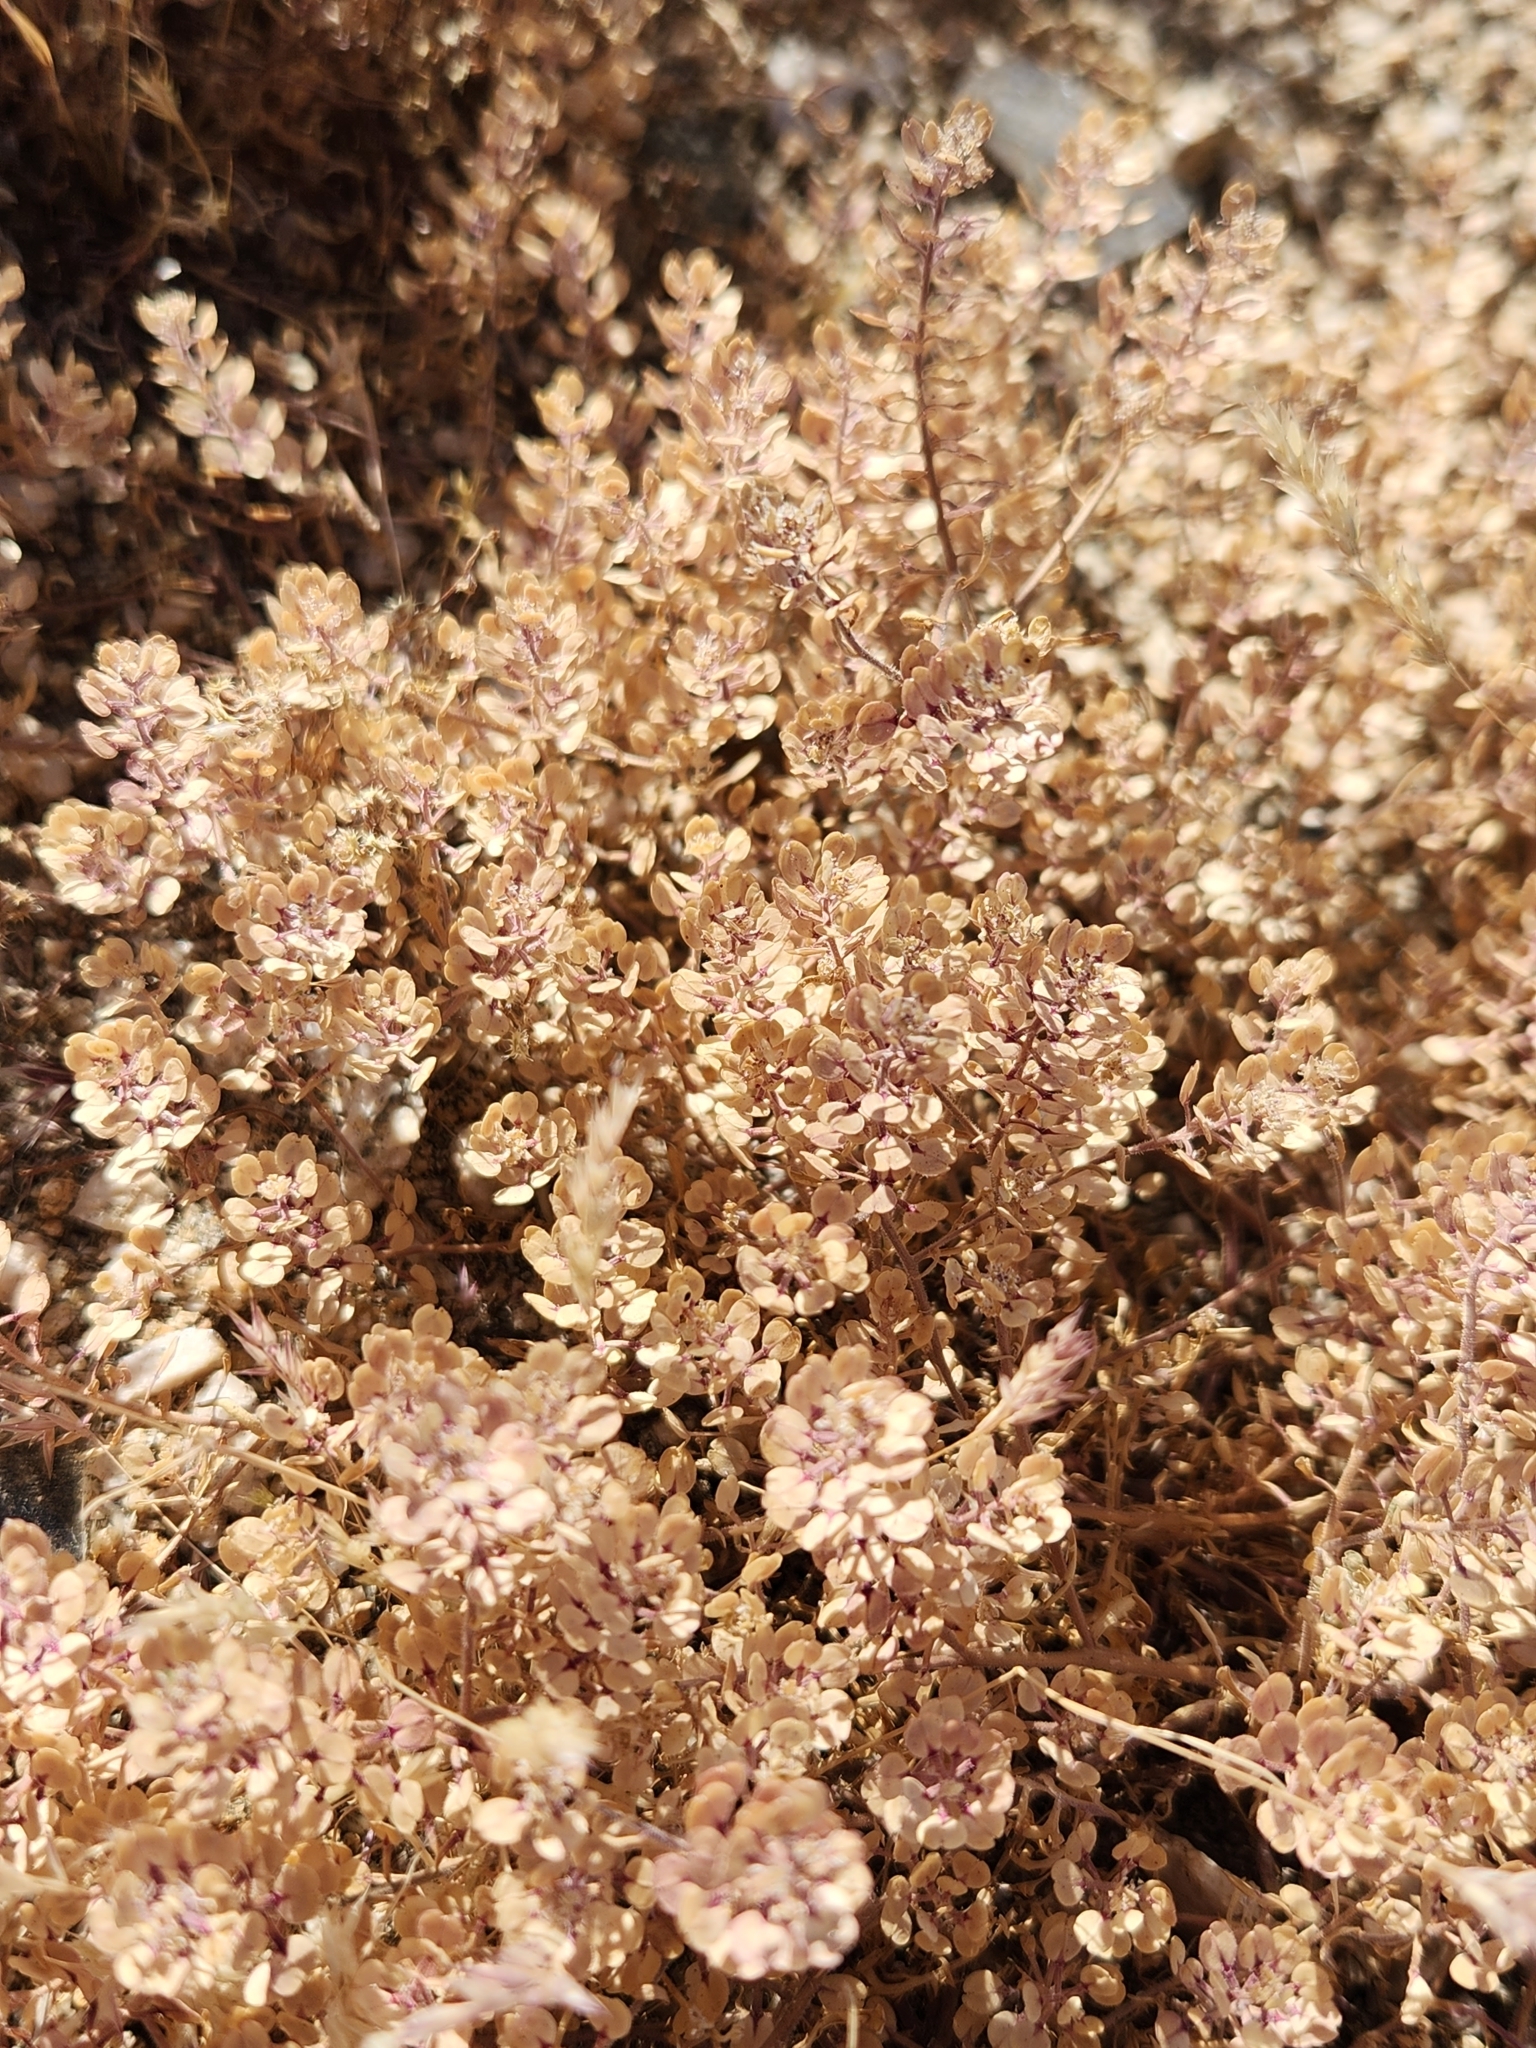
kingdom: Plantae
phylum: Tracheophyta
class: Magnoliopsida
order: Brassicales
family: Brassicaceae
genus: Lepidium
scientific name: Lepidium lasiocarpum
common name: Hairy-pod pepperwort
